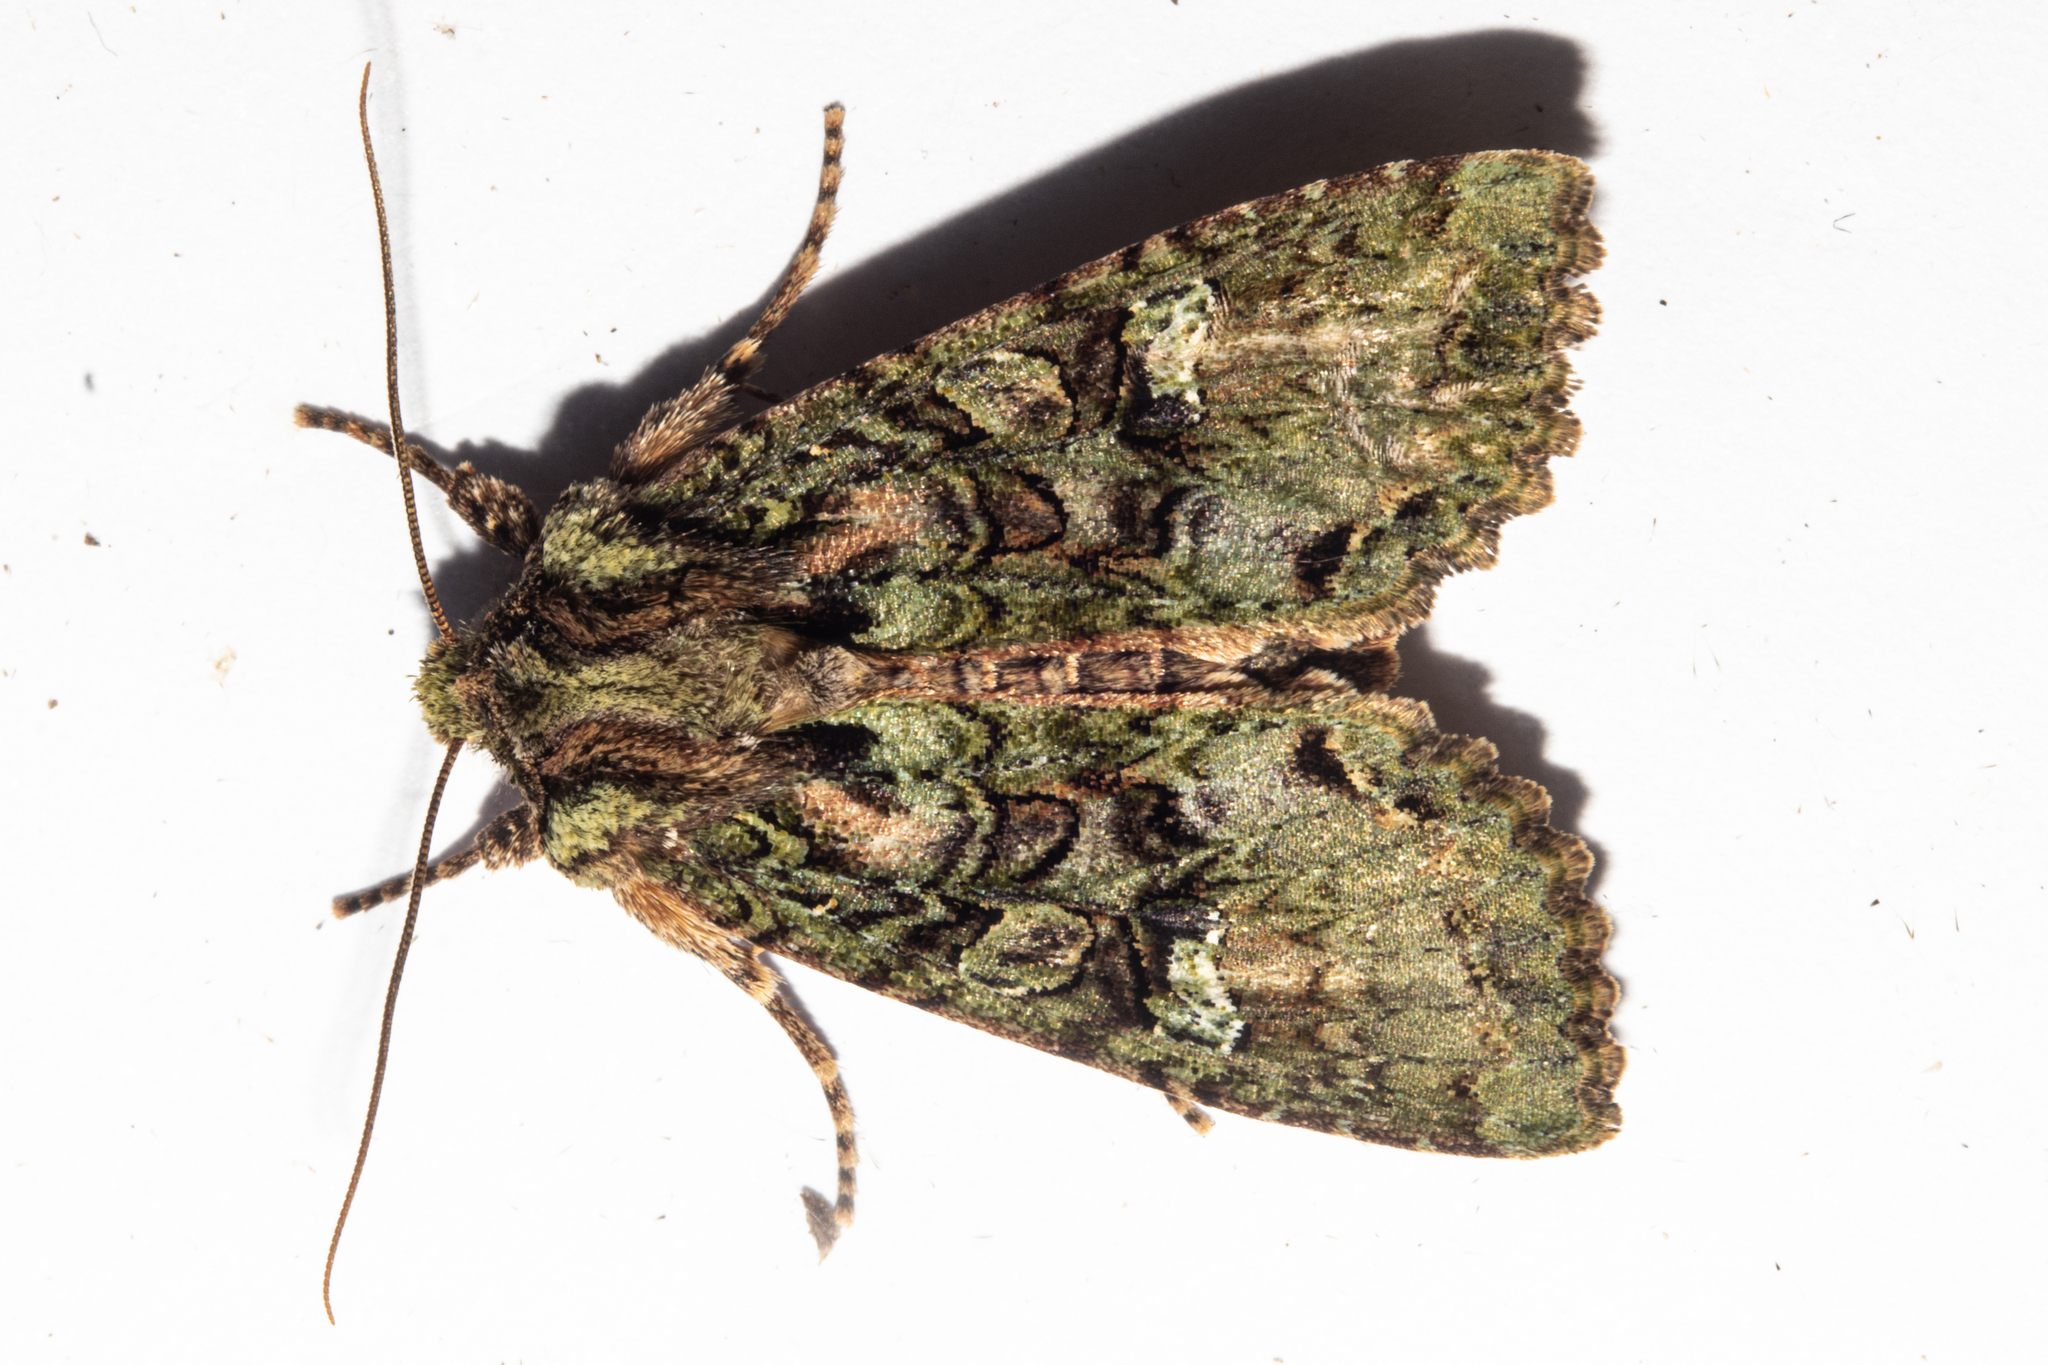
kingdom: Animalia
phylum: Arthropoda
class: Insecta
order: Lepidoptera
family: Noctuidae
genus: Meterana
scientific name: Meterana
